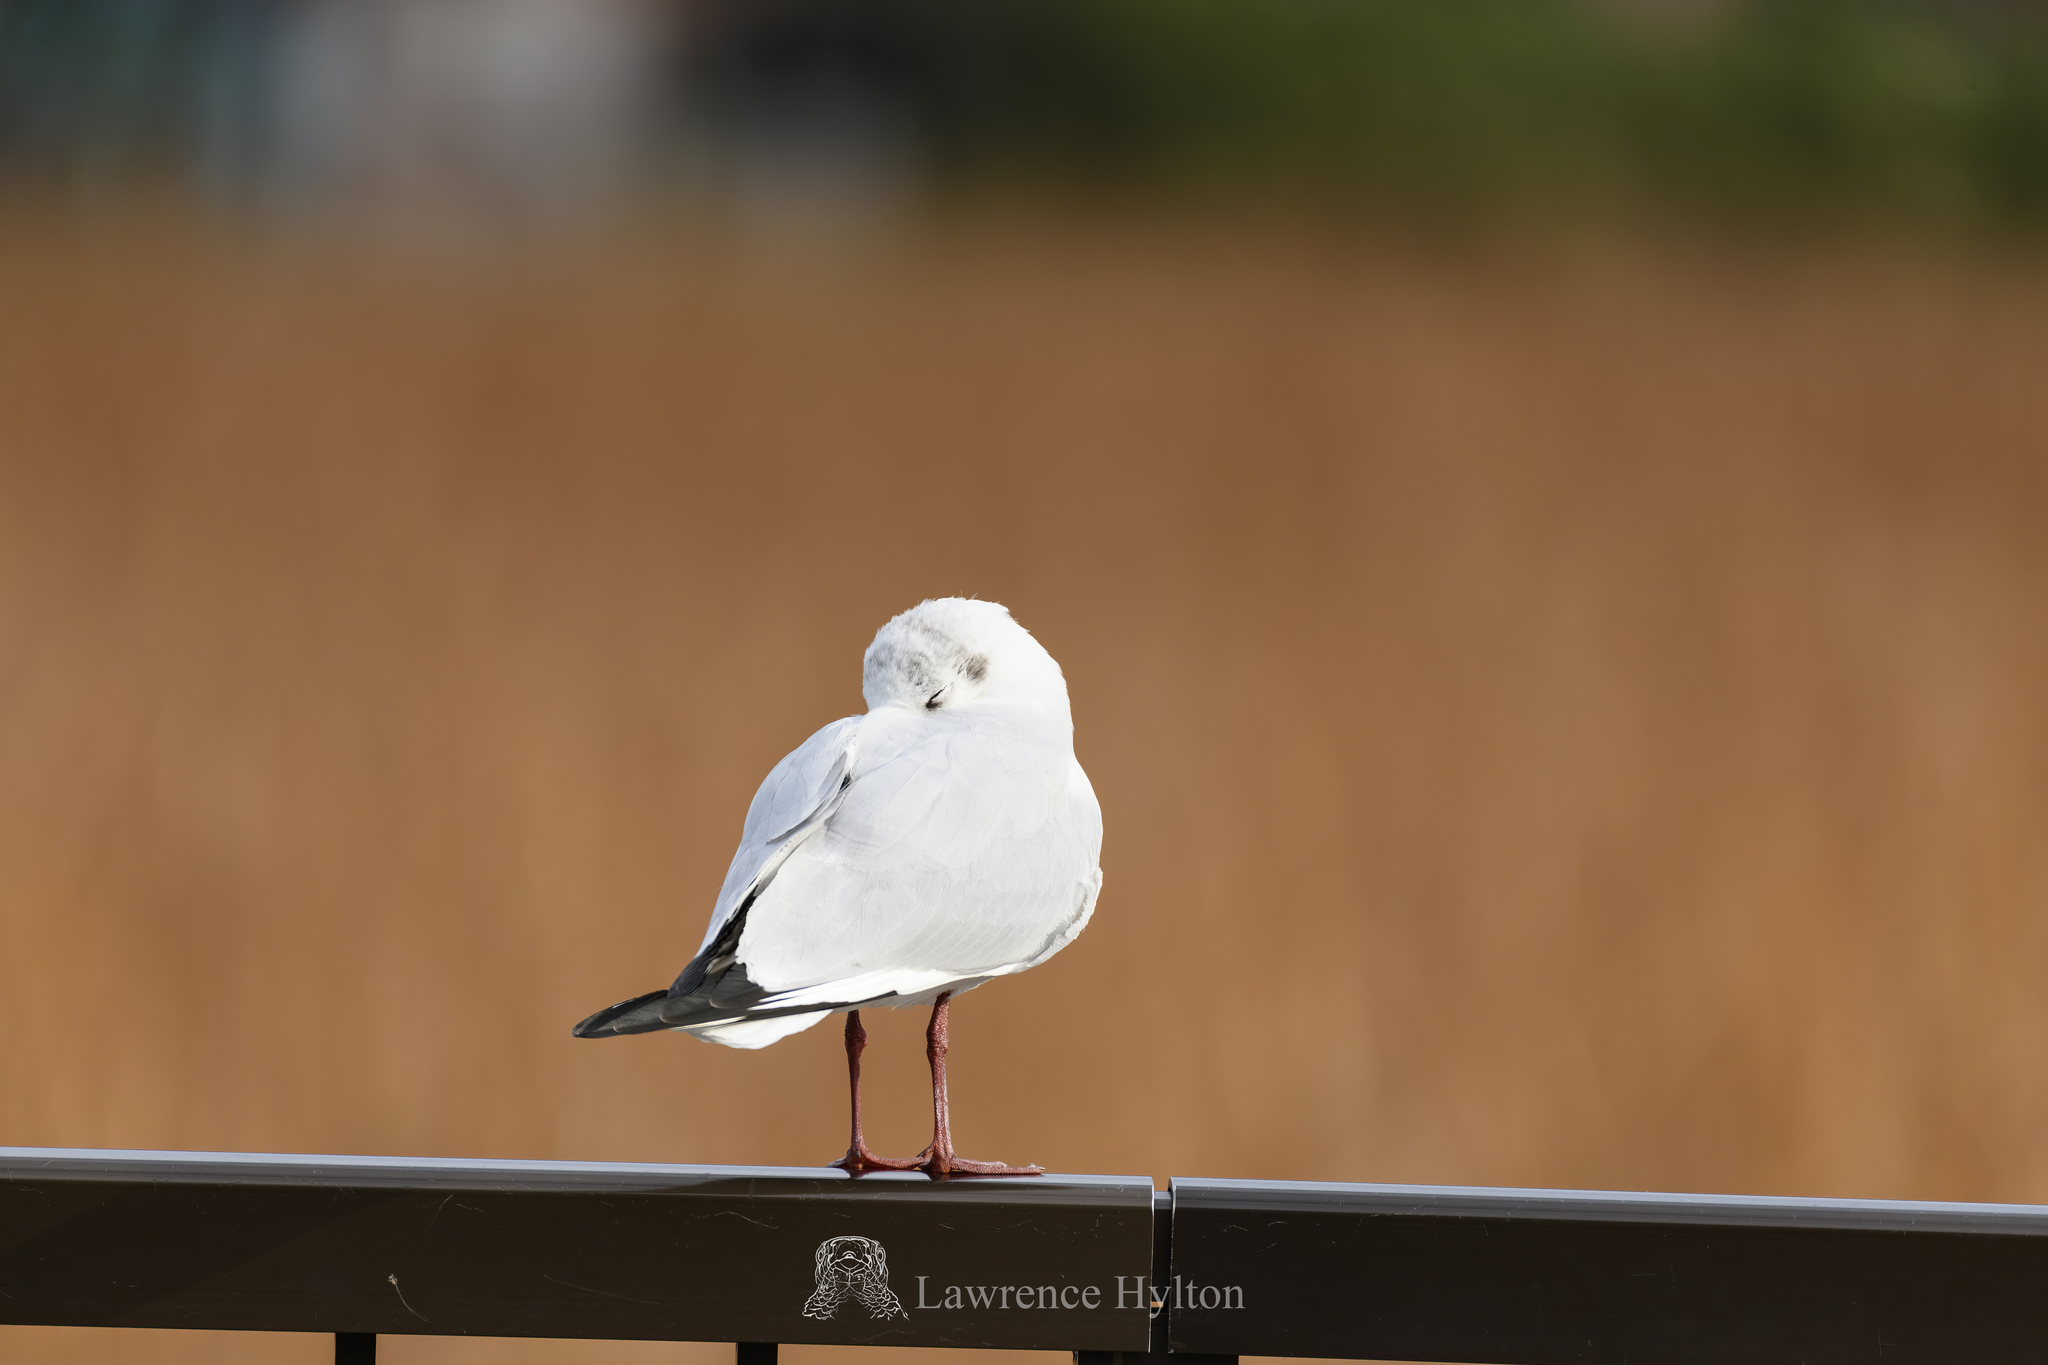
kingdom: Animalia
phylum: Chordata
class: Aves
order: Charadriiformes
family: Laridae
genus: Chroicocephalus
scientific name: Chroicocephalus ridibundus
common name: Black-headed gull
